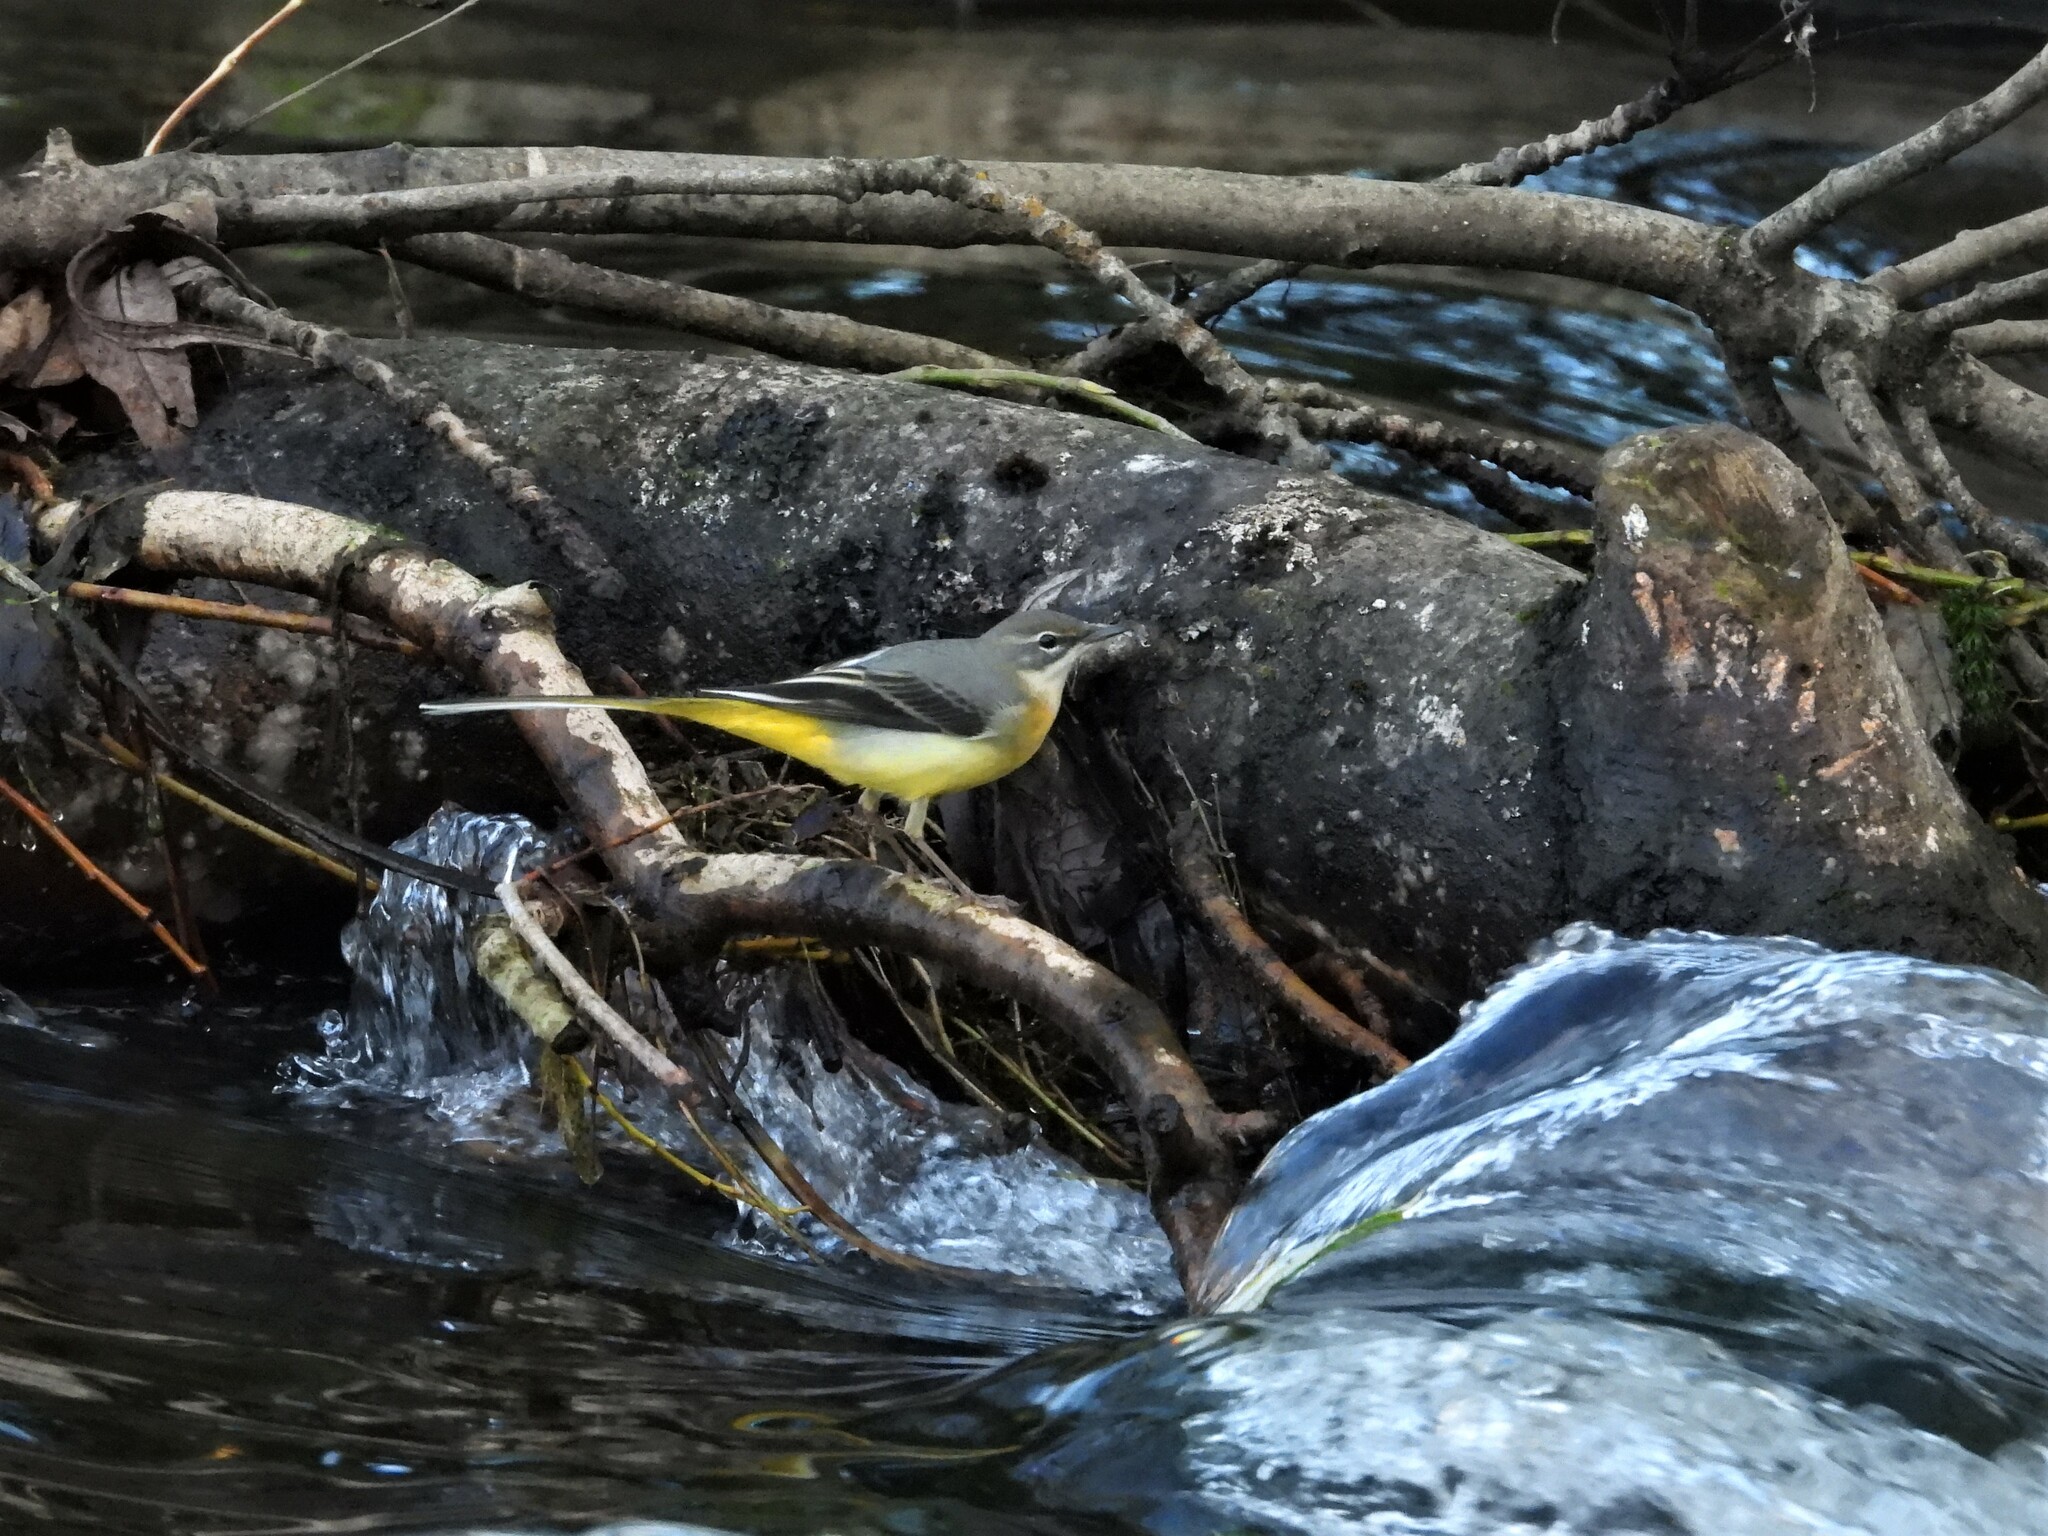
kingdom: Animalia
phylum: Chordata
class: Aves
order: Passeriformes
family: Motacillidae
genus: Motacilla
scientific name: Motacilla cinerea
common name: Grey wagtail
